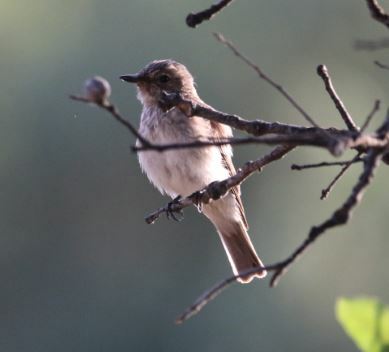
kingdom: Animalia
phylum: Chordata
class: Aves
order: Passeriformes
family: Muscicapidae
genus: Muscicapa
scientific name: Muscicapa striata
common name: Spotted flycatcher
